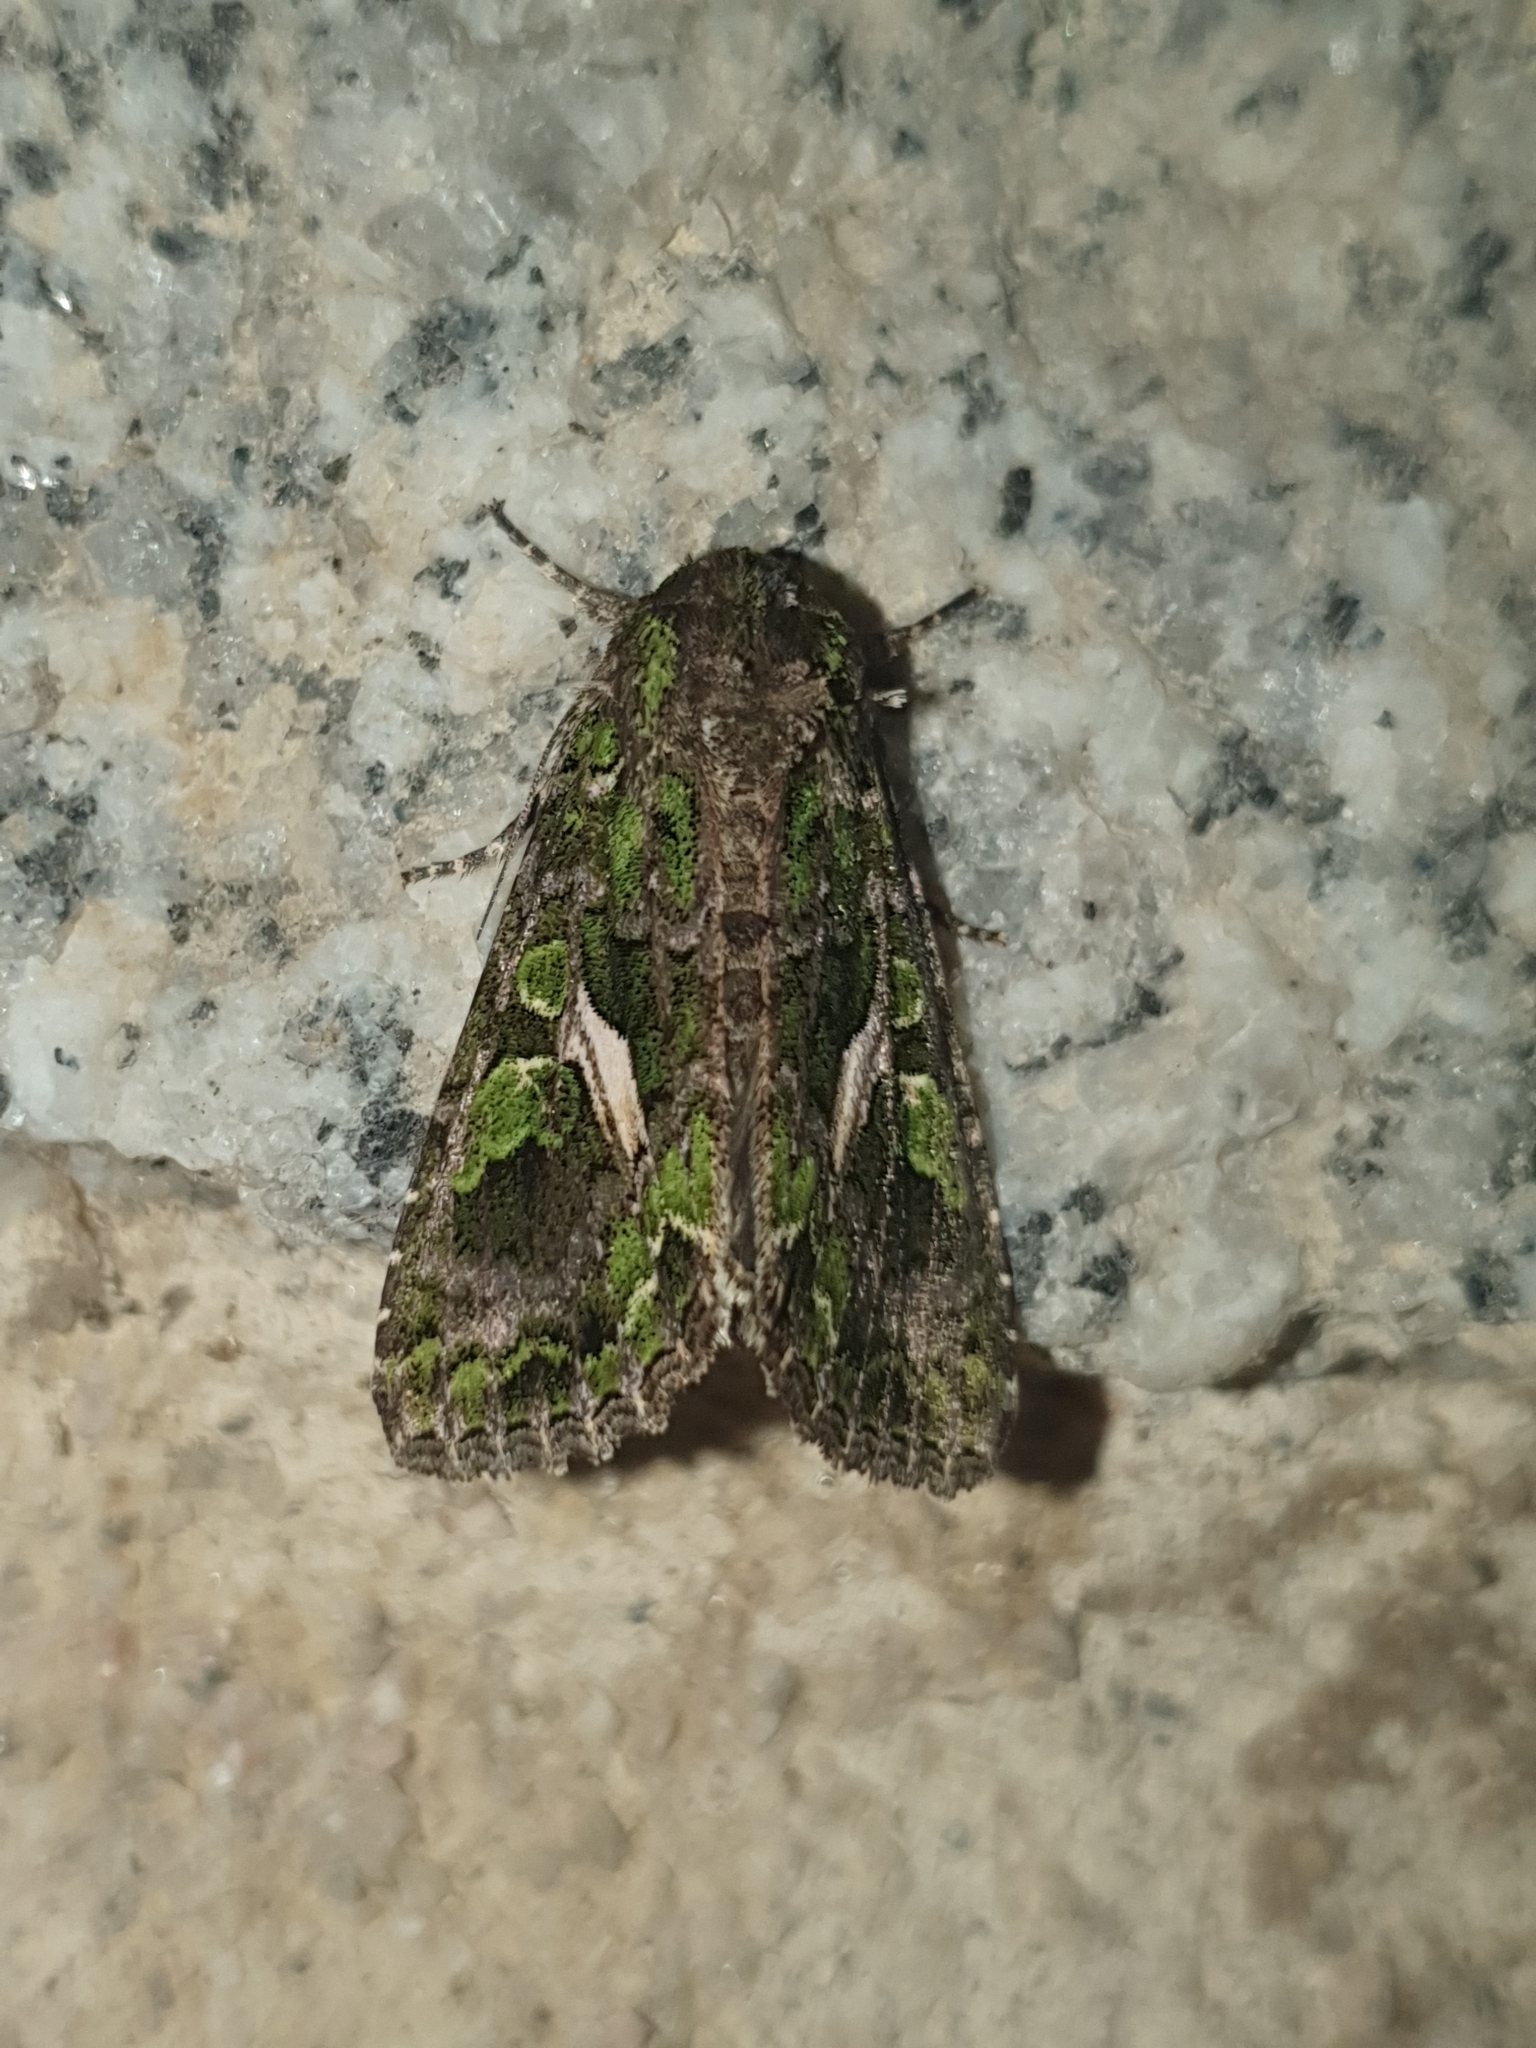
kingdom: Animalia
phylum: Arthropoda
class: Insecta
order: Lepidoptera
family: Noctuidae
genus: Trachea
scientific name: Trachea atriplicis
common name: Orache moth
